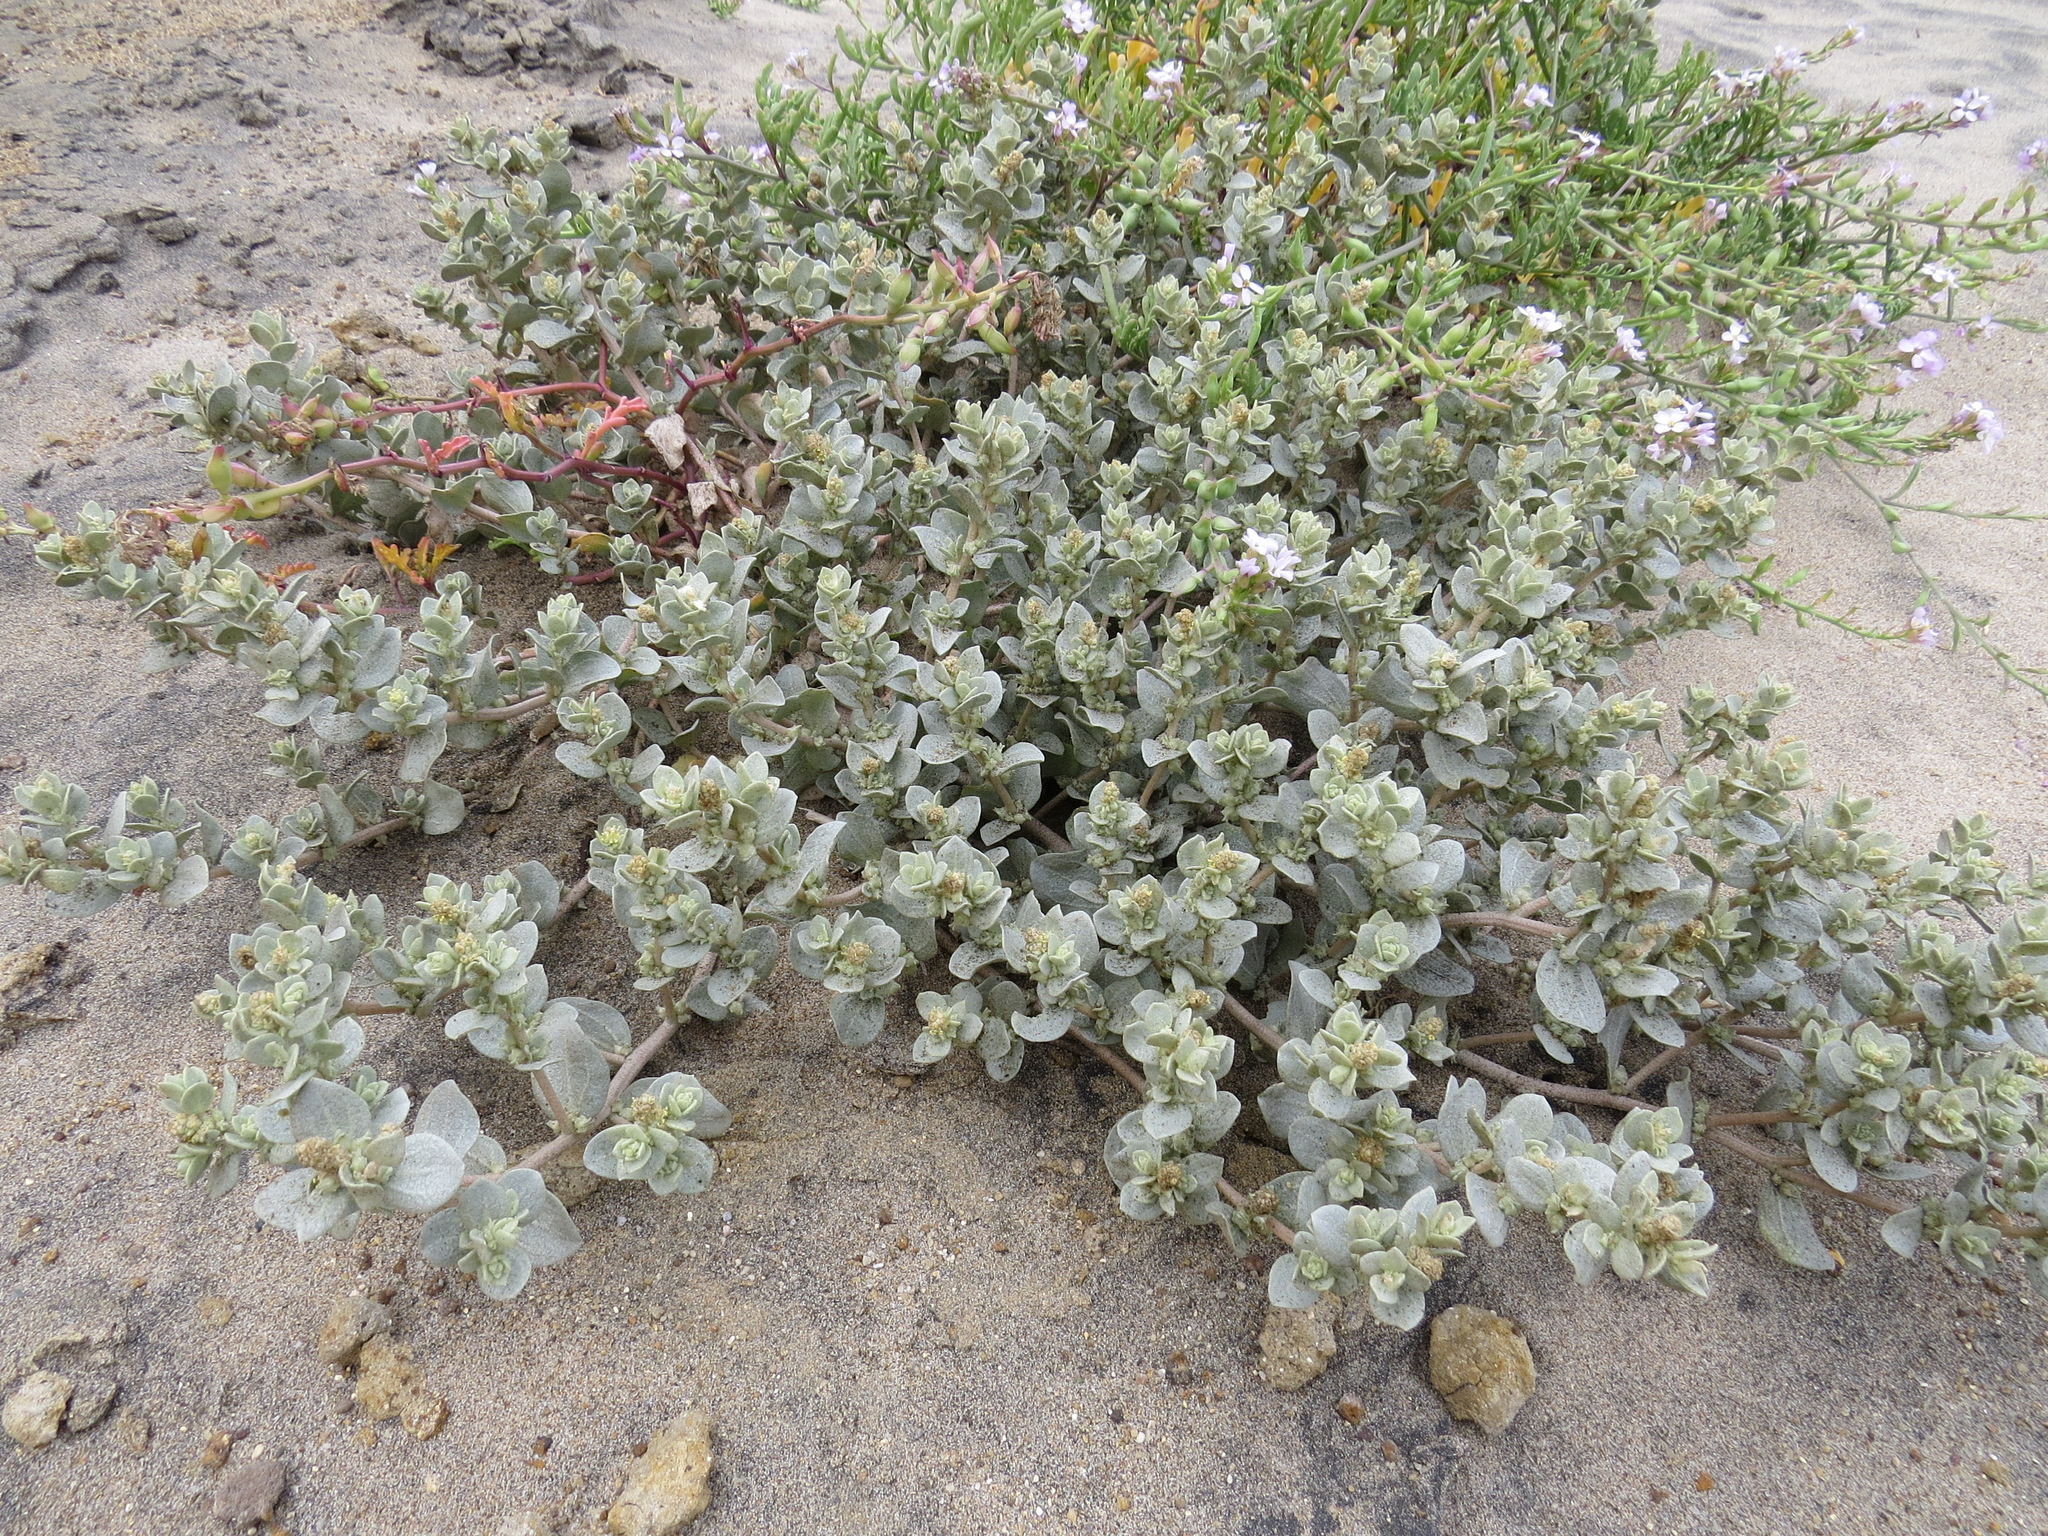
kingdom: Plantae
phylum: Tracheophyta
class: Magnoliopsida
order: Caryophyllales
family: Amaranthaceae
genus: Atriplex
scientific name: Atriplex leucophylla
